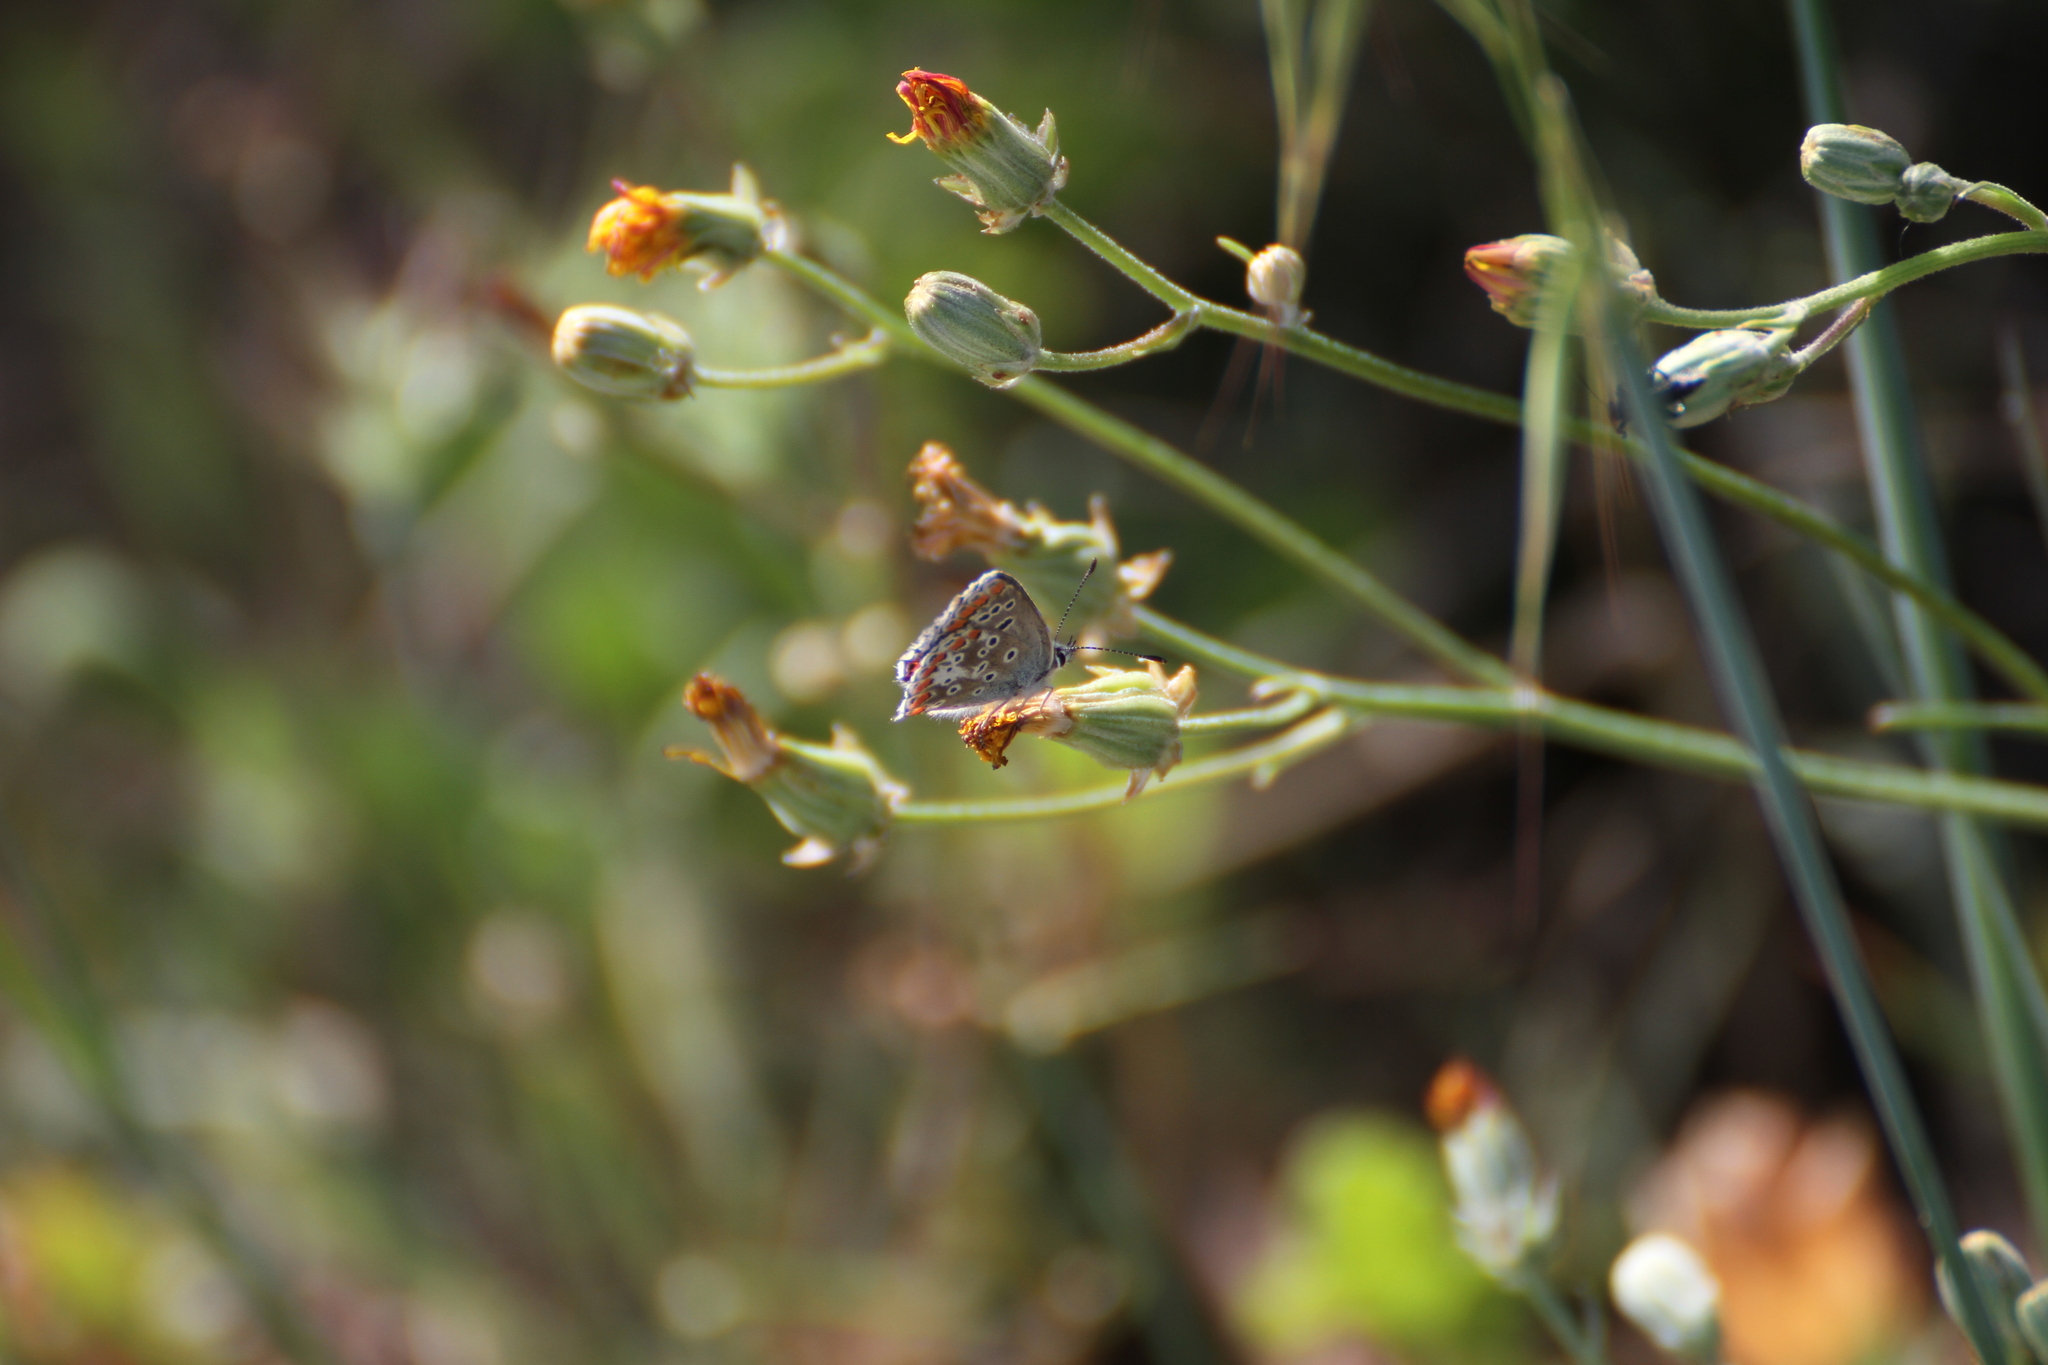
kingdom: Animalia
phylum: Arthropoda
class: Insecta
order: Lepidoptera
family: Lycaenidae
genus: Aricia
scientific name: Aricia agestis
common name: Brown argus
